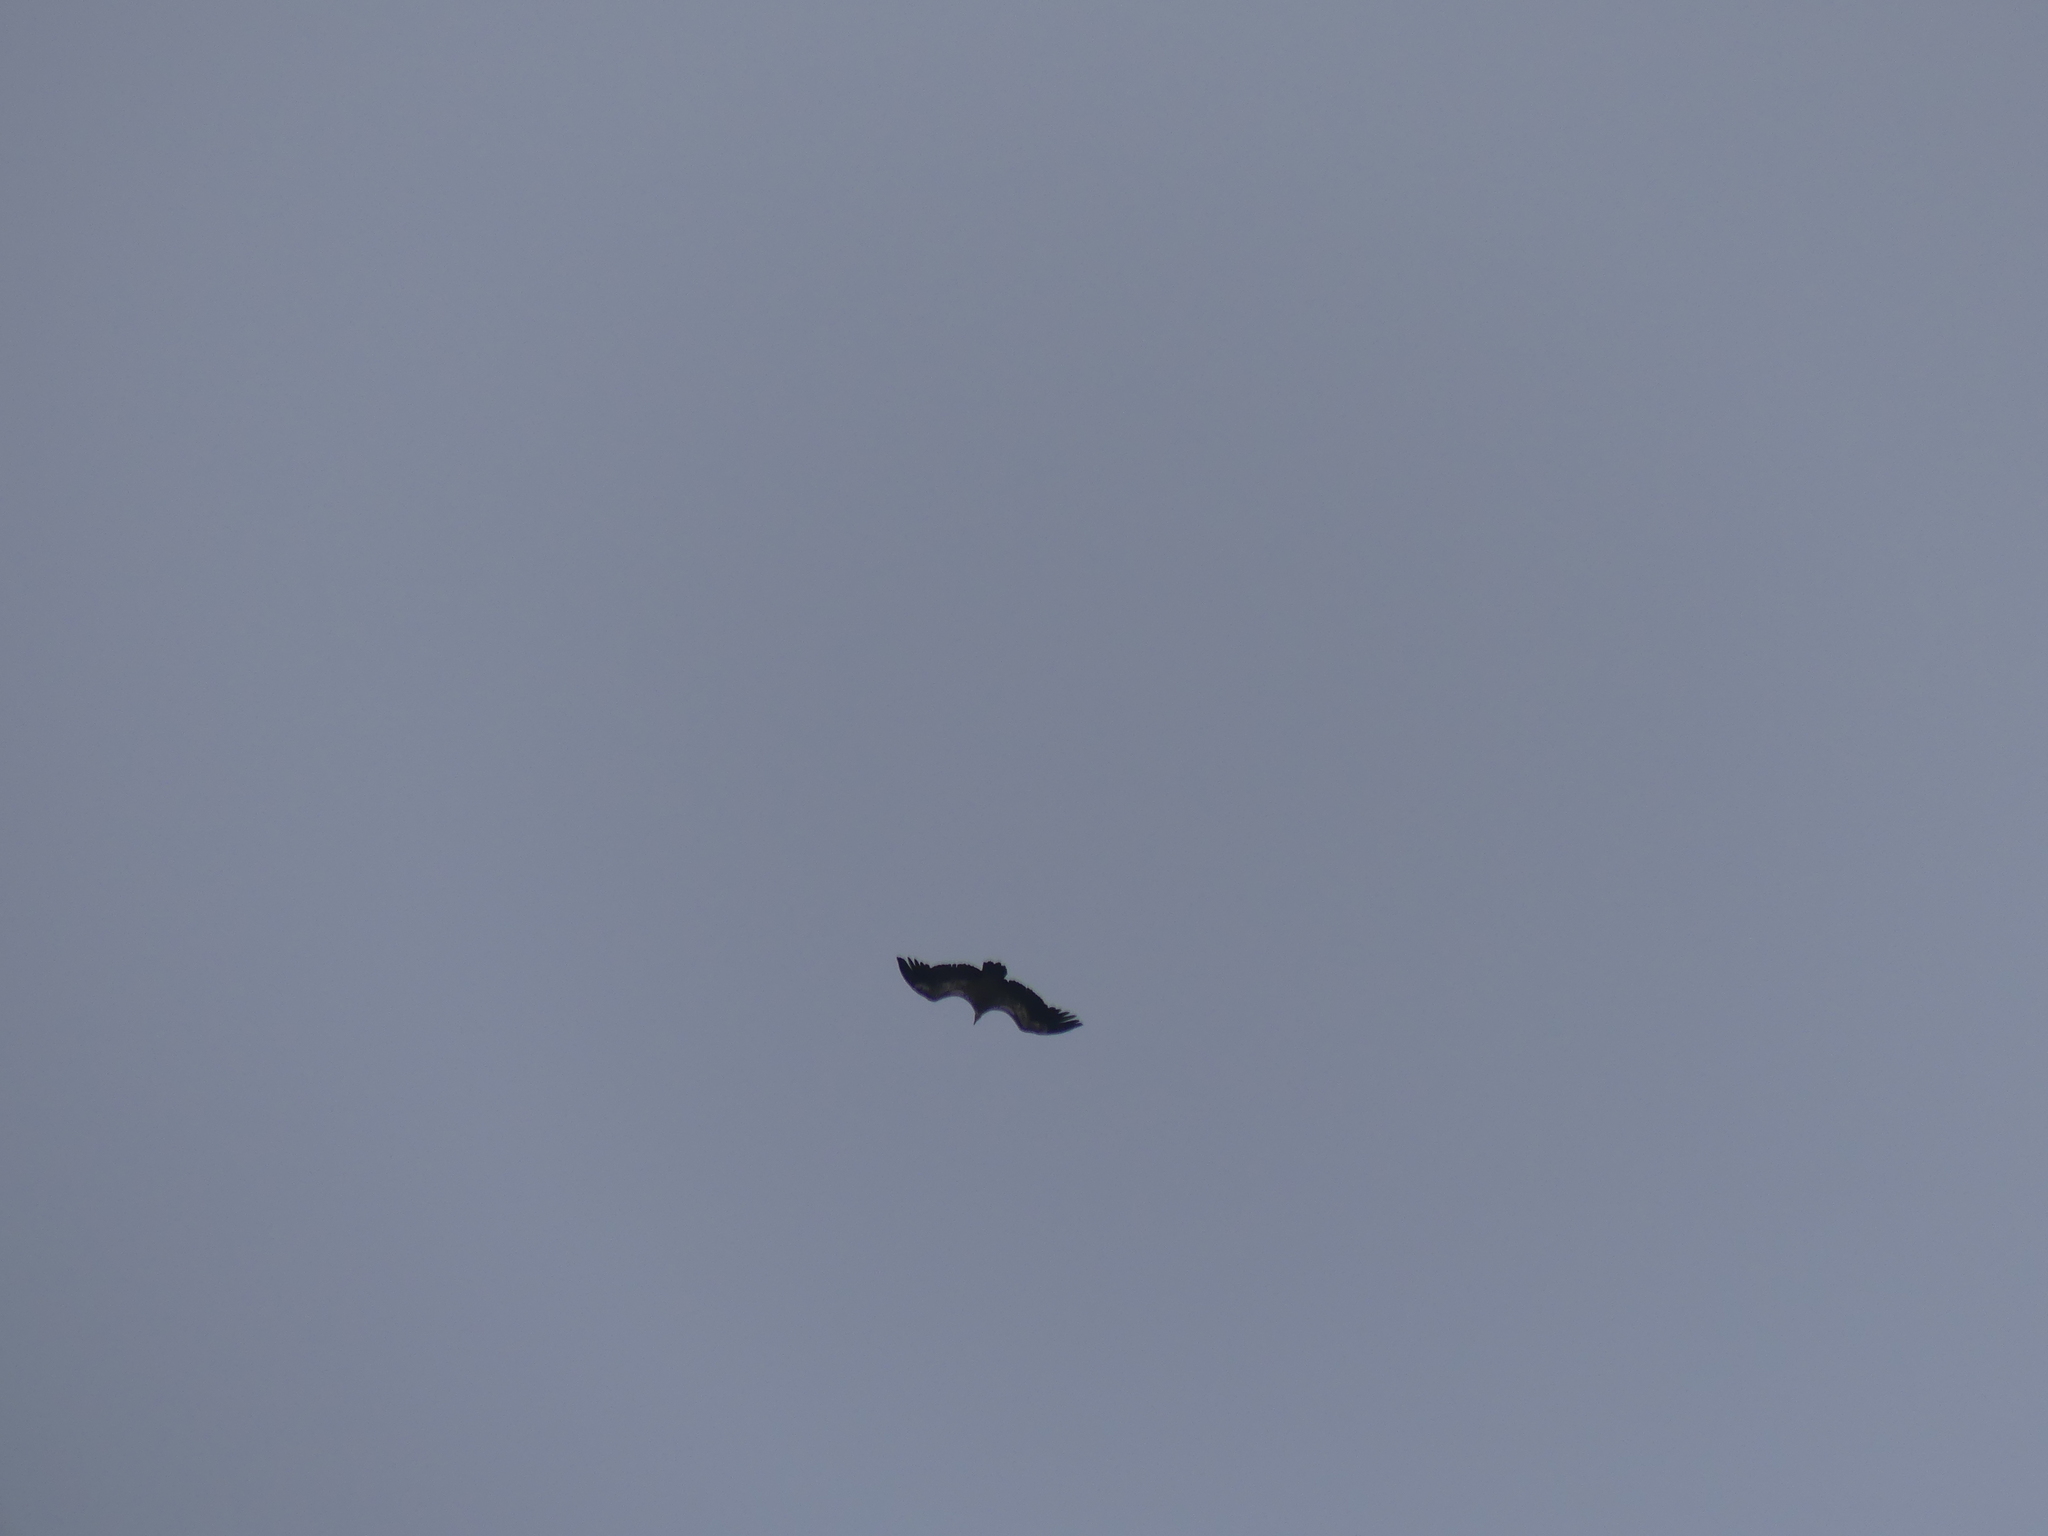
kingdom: Animalia
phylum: Chordata
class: Aves
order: Accipitriformes
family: Accipitridae
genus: Gyps
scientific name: Gyps fulvus
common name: Griffon vulture
